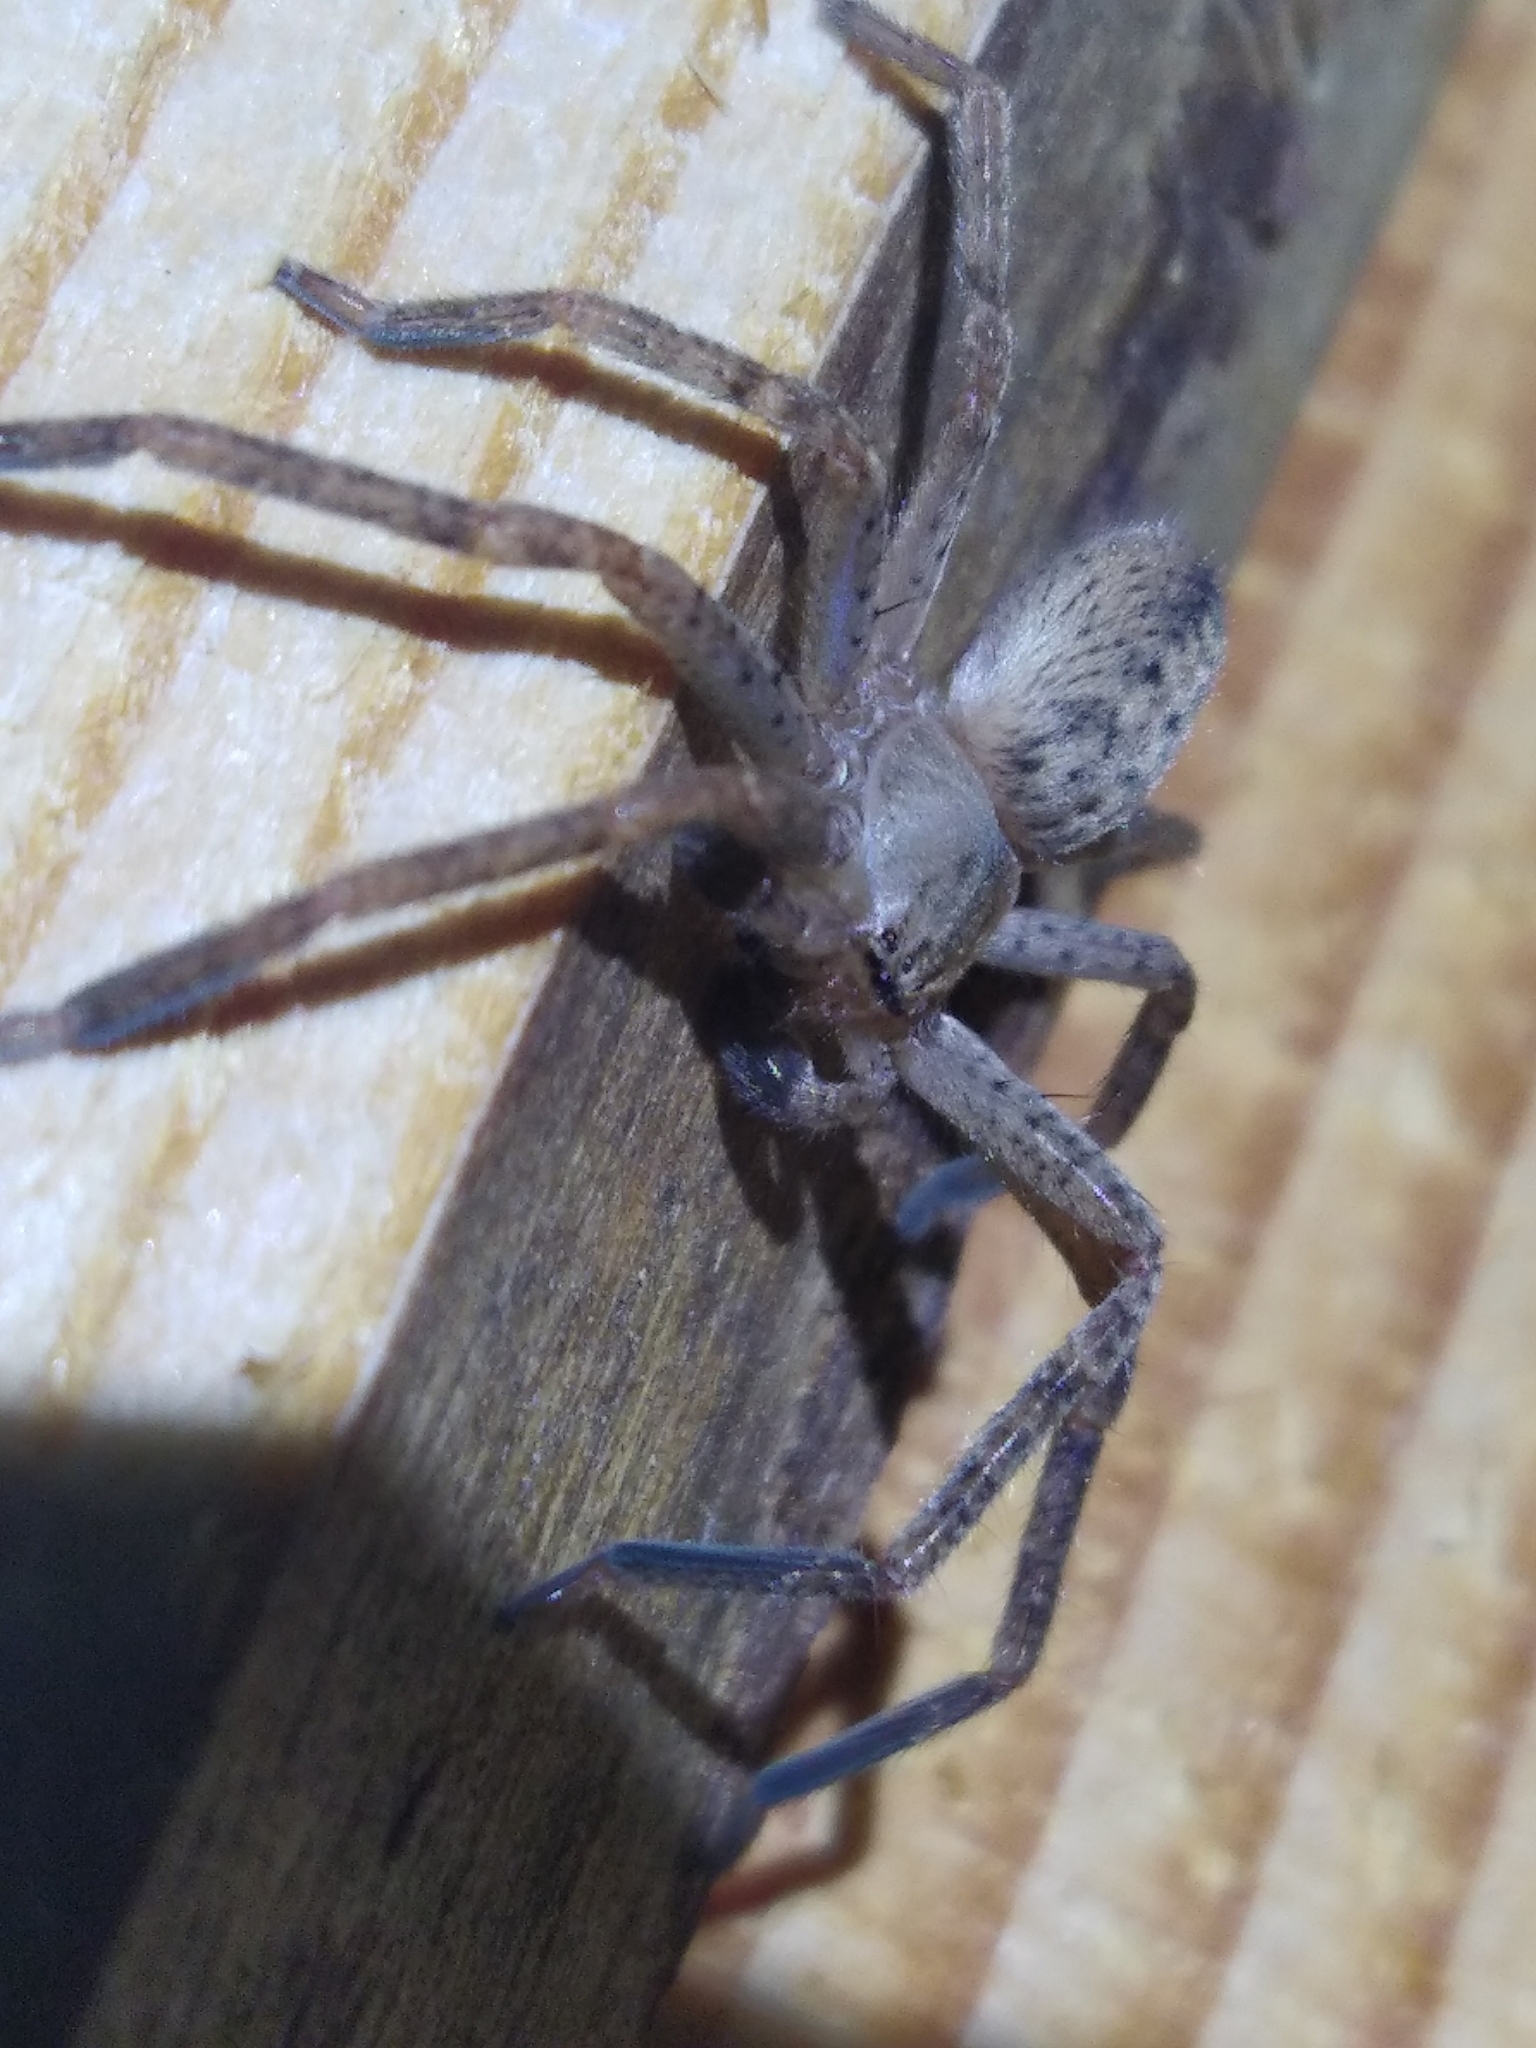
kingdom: Animalia
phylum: Arthropoda
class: Arachnida
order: Araneae
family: Sparassidae
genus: Olios
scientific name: Olios argelasius
